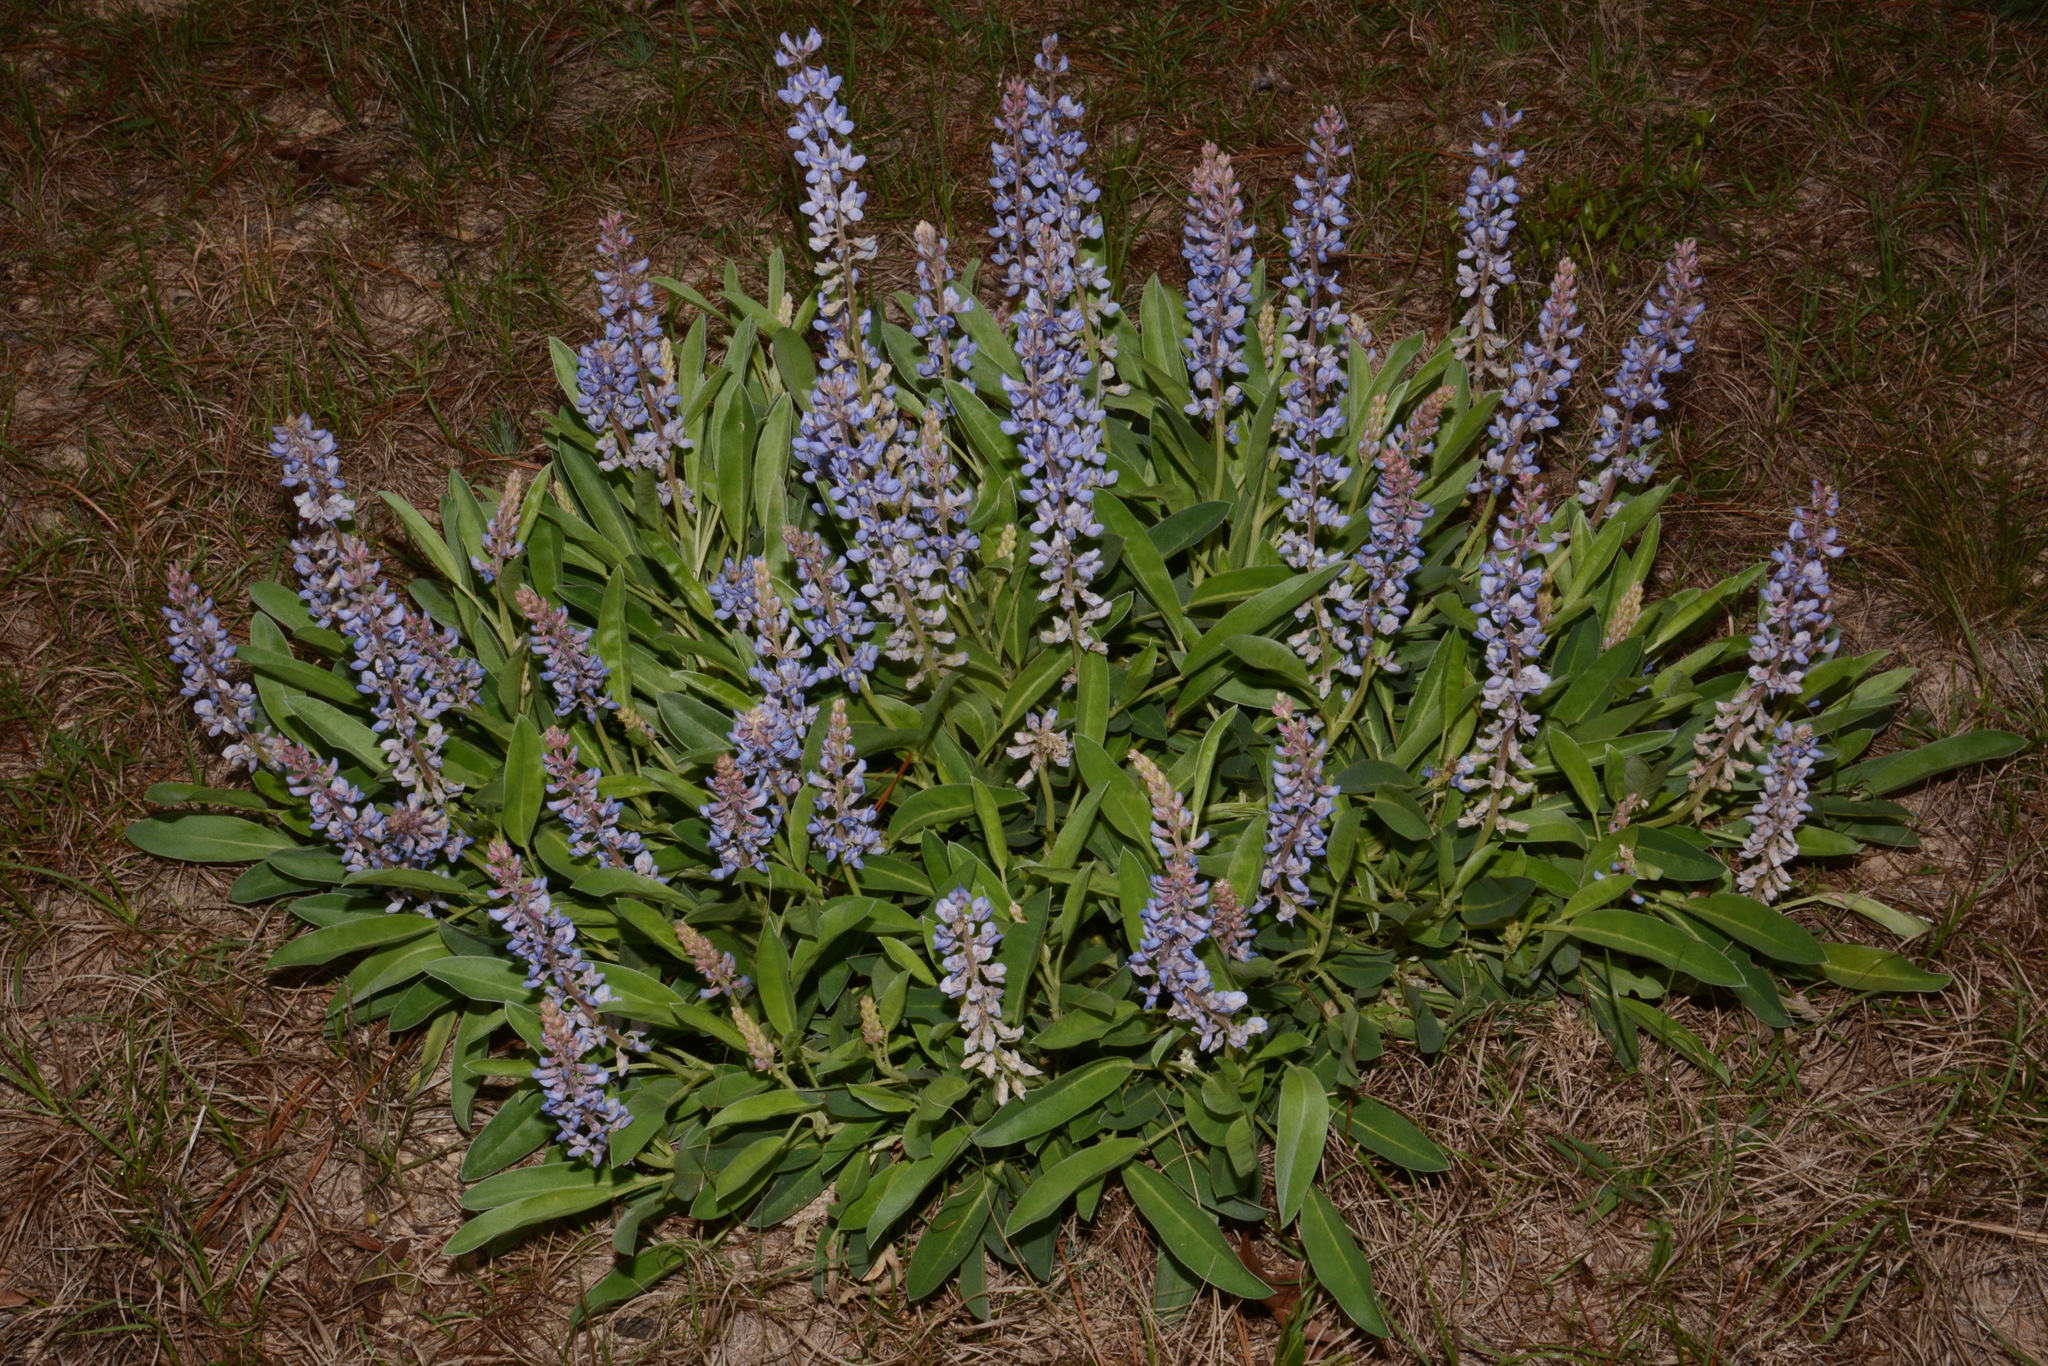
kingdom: Plantae
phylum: Tracheophyta
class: Magnoliopsida
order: Fabales
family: Fabaceae
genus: Lupinus
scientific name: Lupinus diffusus
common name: Oak ridge lupine
